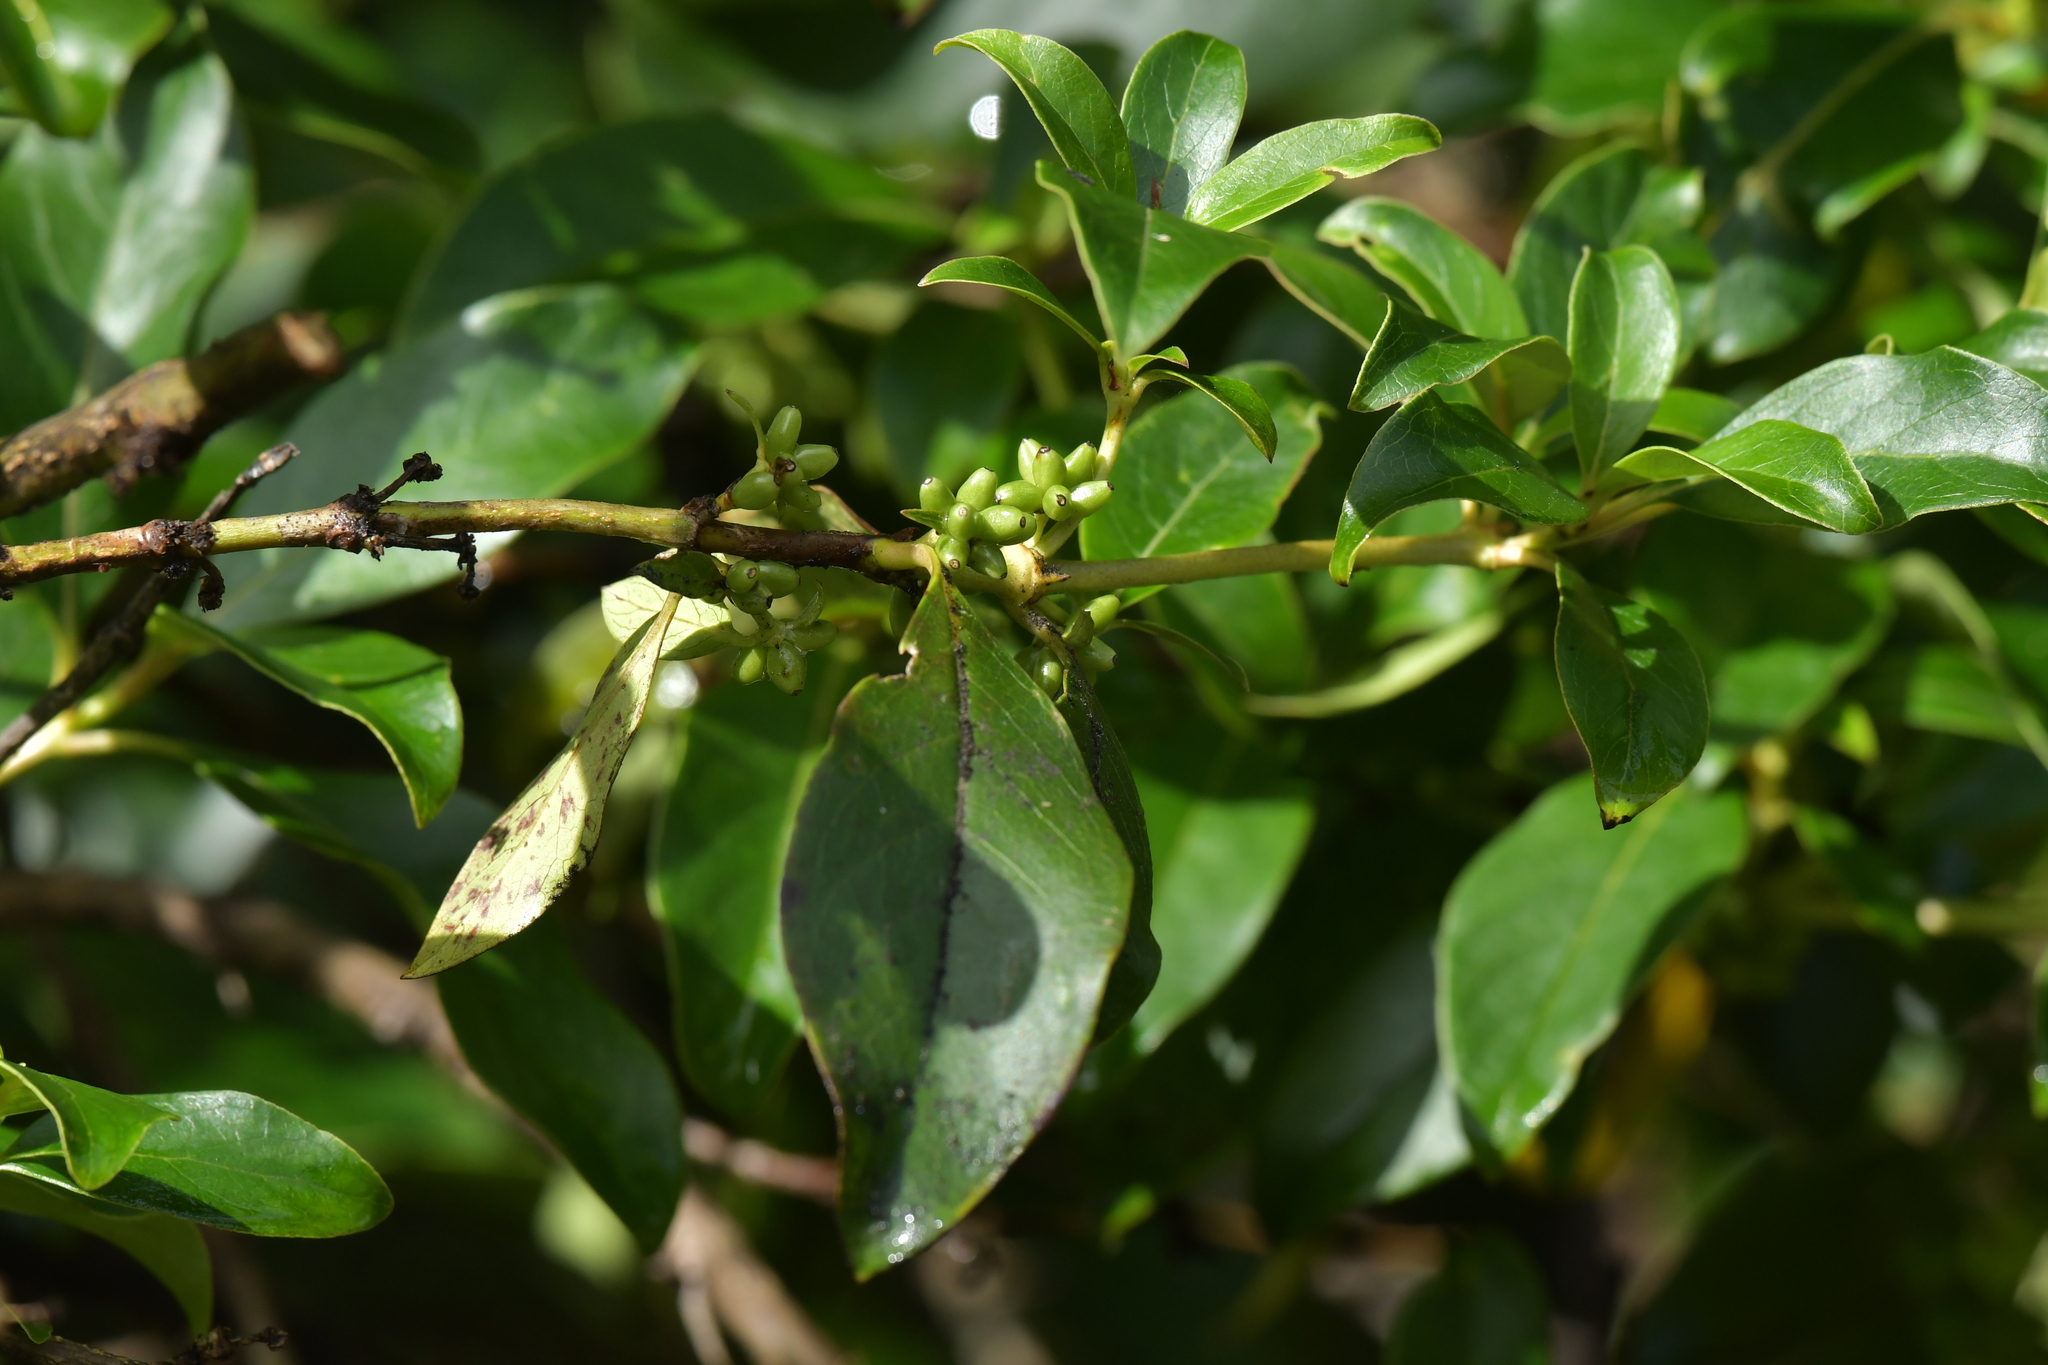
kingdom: Plantae
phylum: Tracheophyta
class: Magnoliopsida
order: Gentianales
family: Rubiaceae
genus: Coprosma
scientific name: Coprosma robusta
